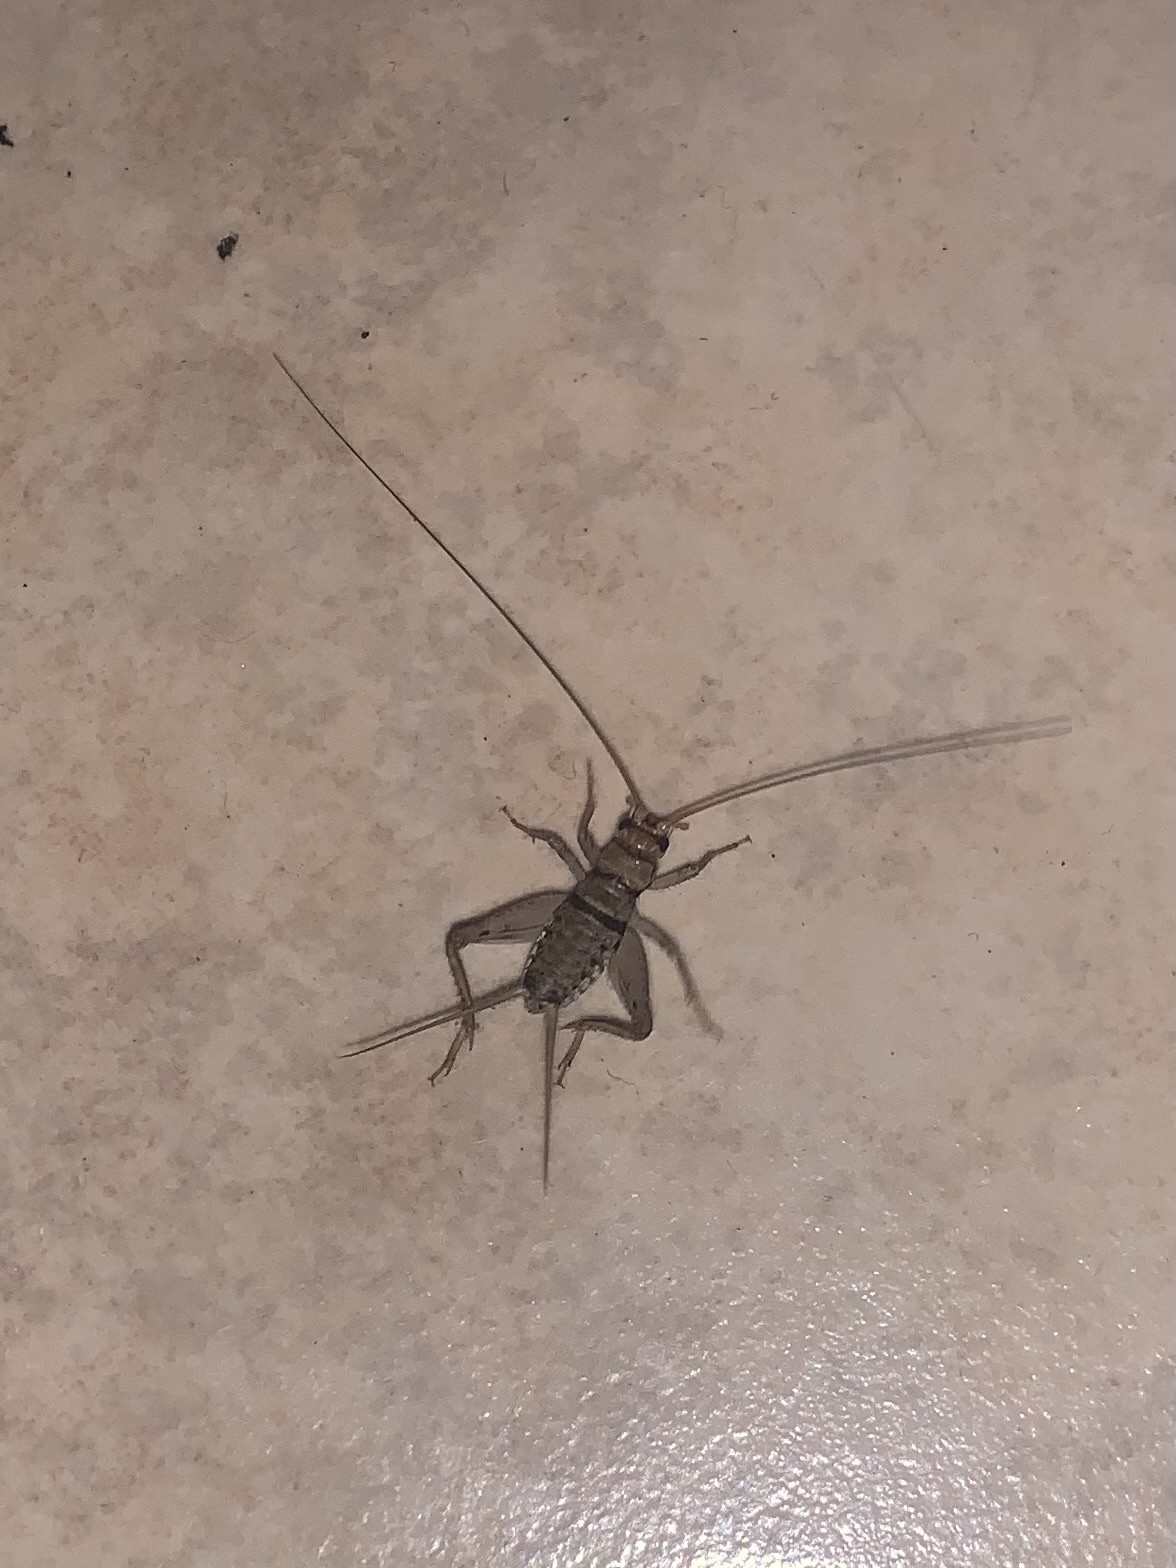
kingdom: Animalia
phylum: Arthropoda
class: Insecta
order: Orthoptera
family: Gryllidae
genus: Gryllodes
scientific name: Gryllodes sigillatus
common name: Tropical house cricket
